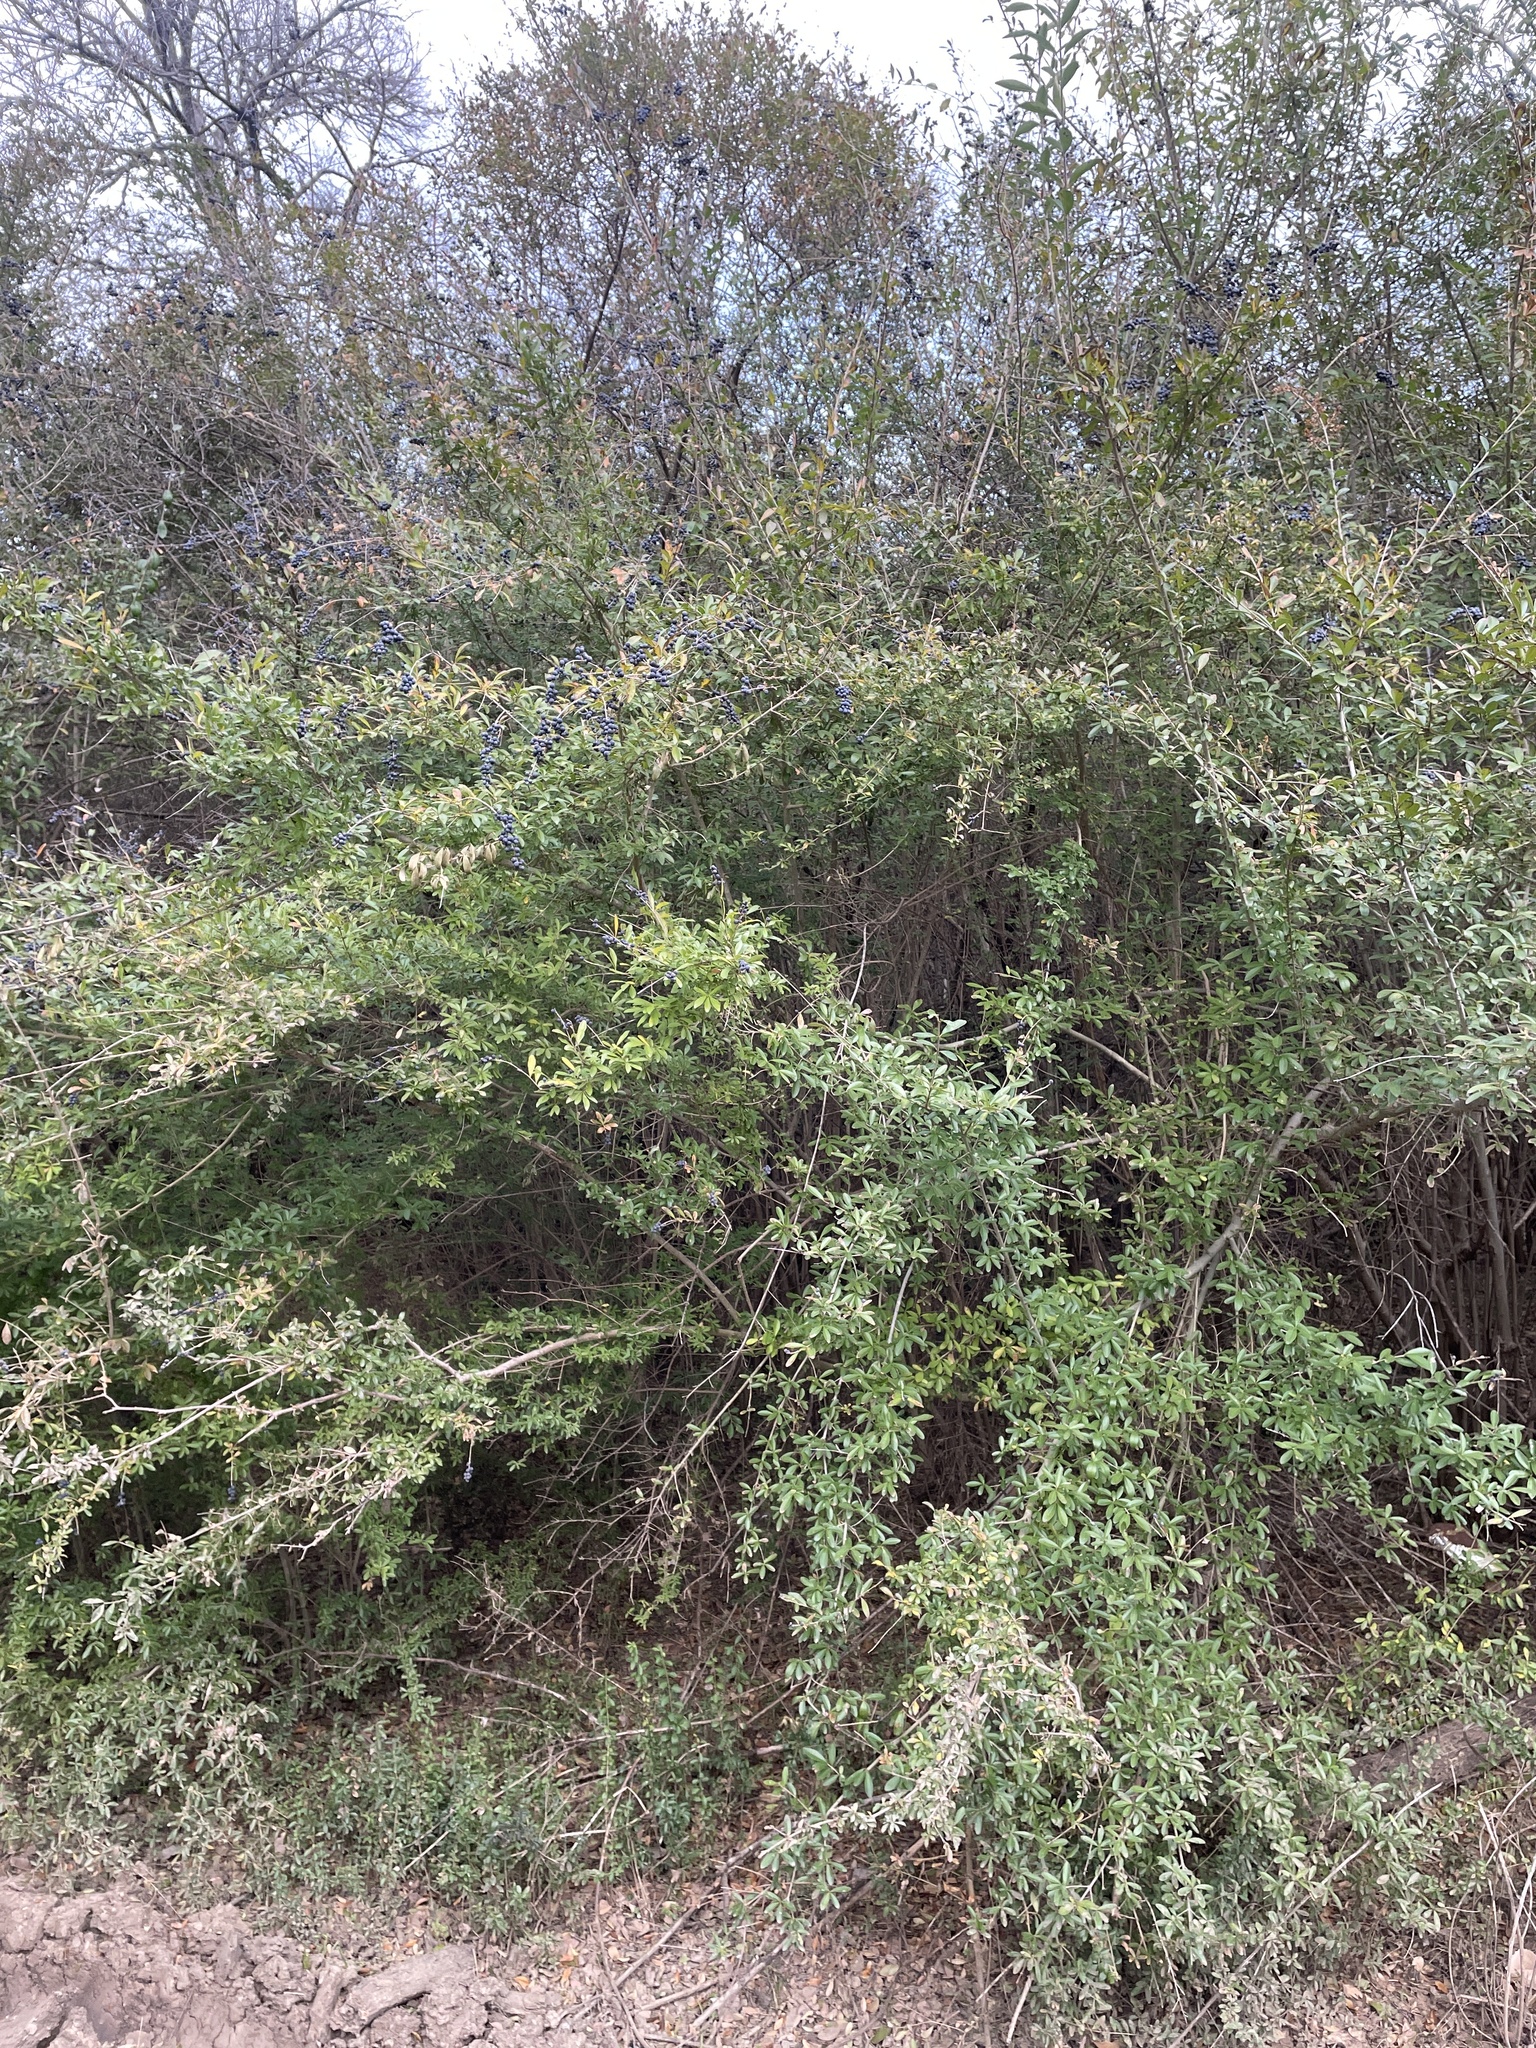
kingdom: Plantae
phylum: Tracheophyta
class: Magnoliopsida
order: Lamiales
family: Oleaceae
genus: Ligustrum
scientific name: Ligustrum quihoui
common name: Waxyleaf privet
